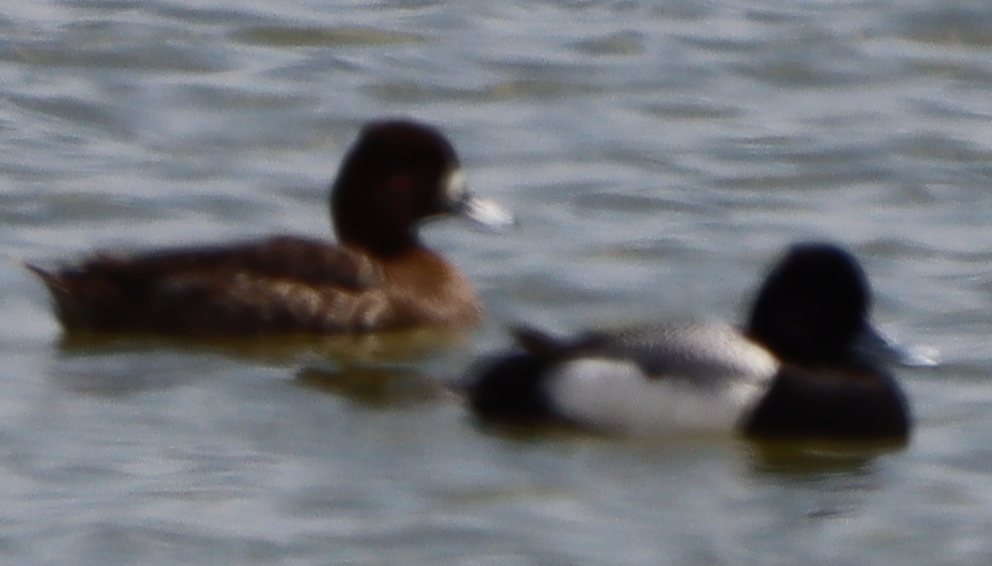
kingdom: Animalia
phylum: Chordata
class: Aves
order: Anseriformes
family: Anatidae
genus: Aythya
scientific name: Aythya affinis
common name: Lesser scaup
